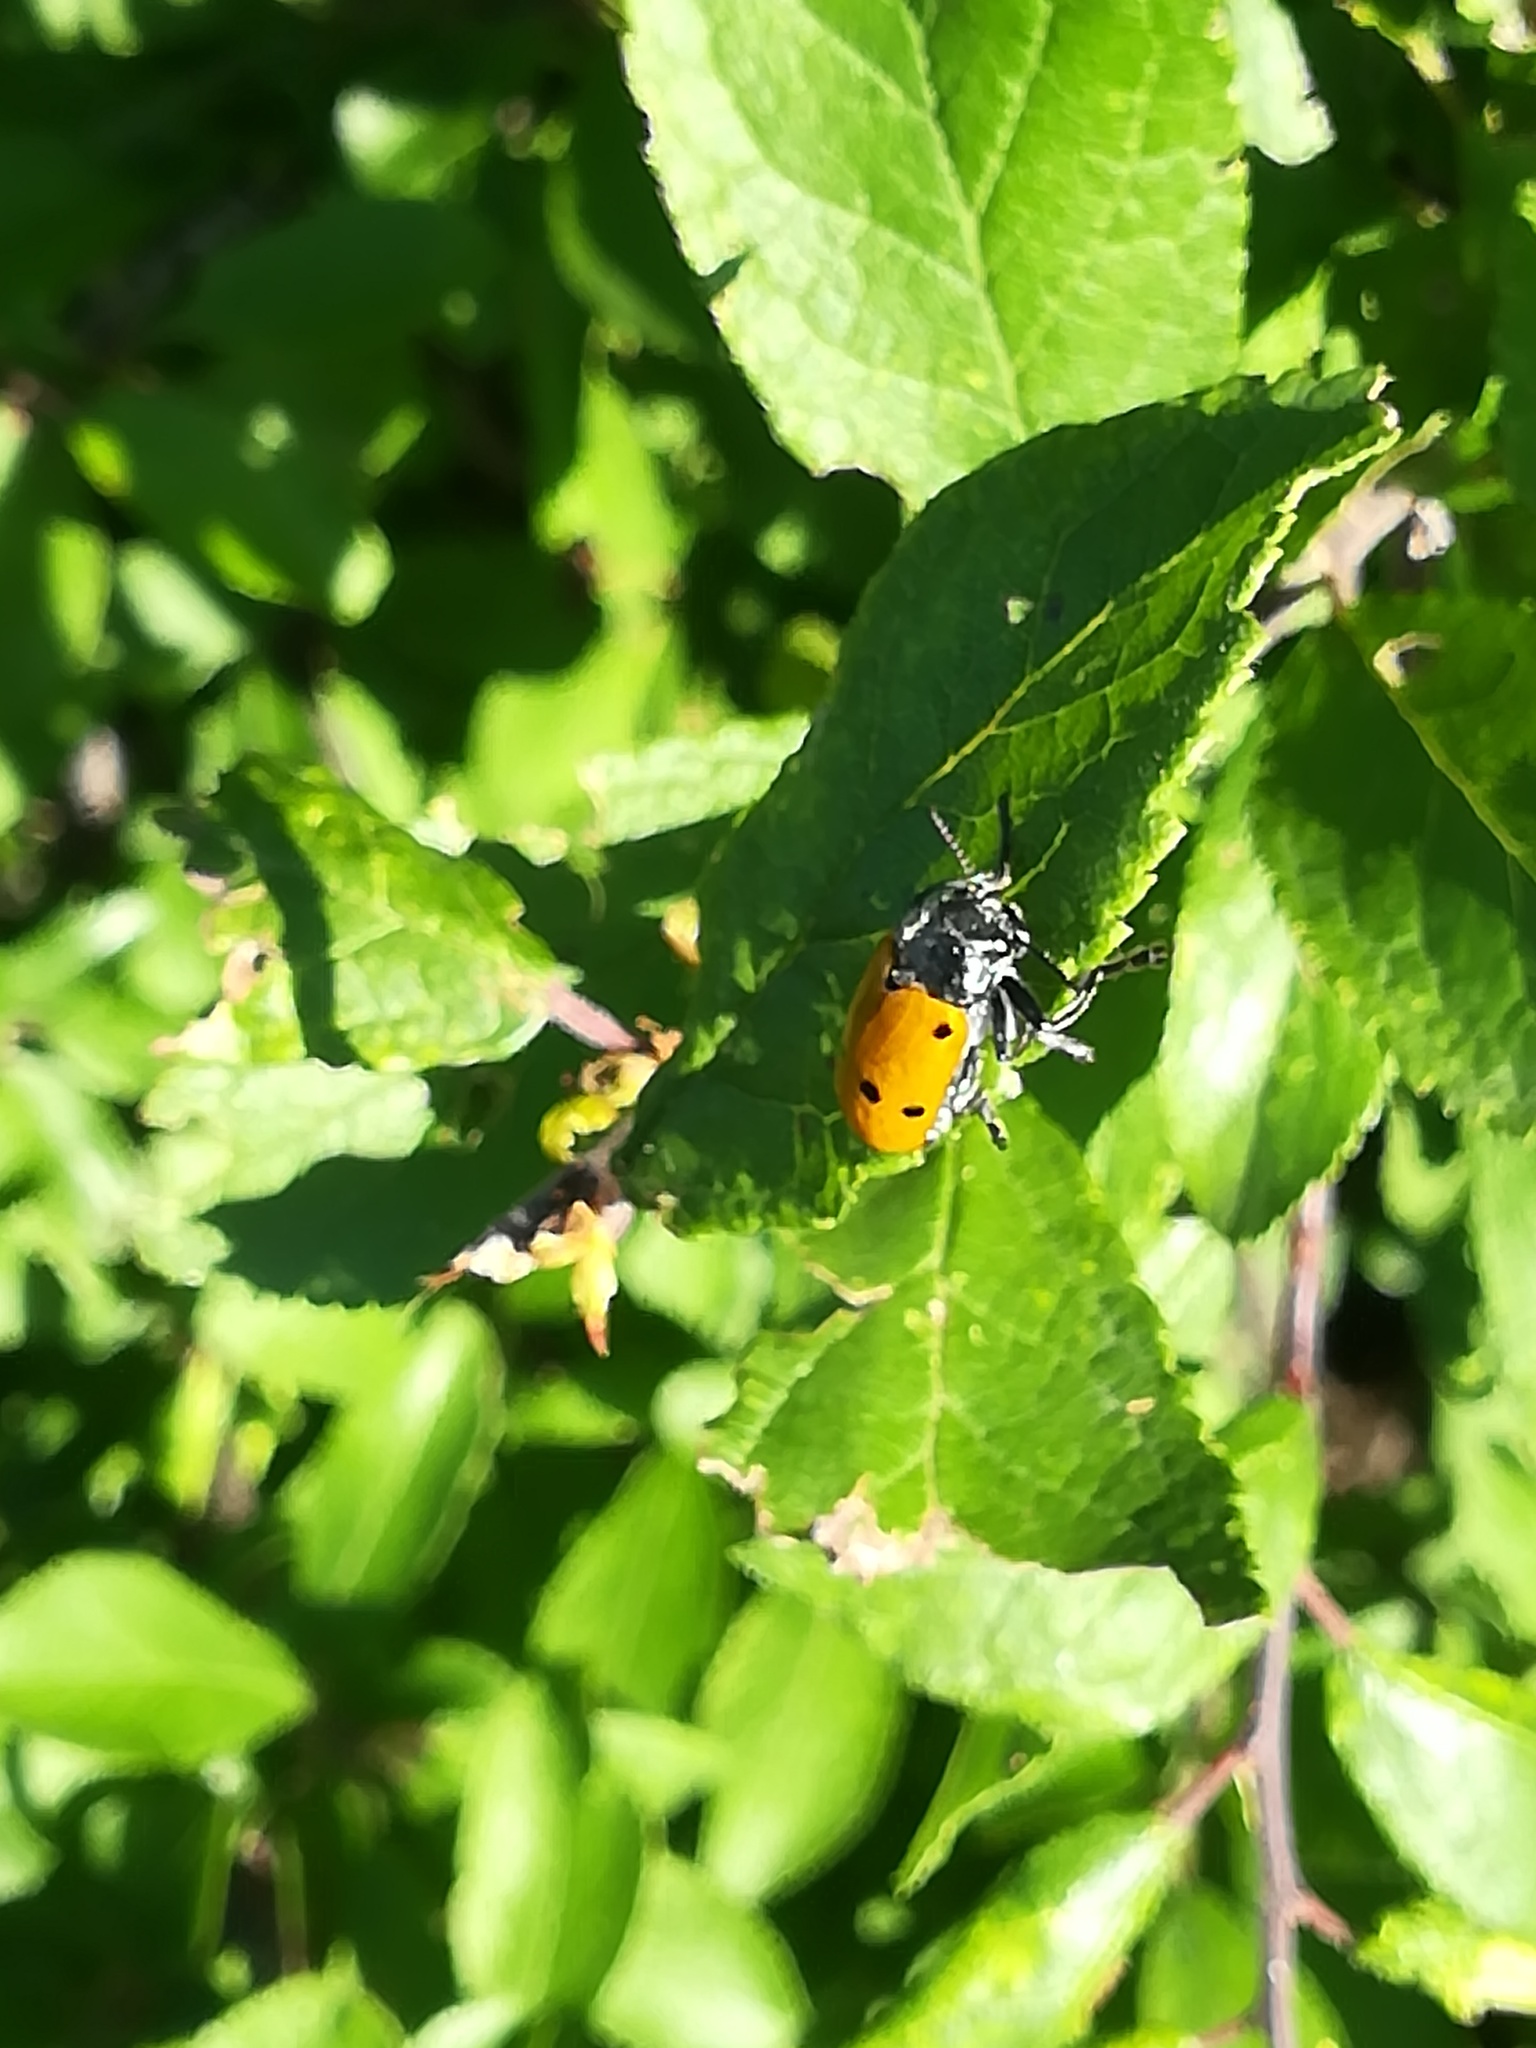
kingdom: Animalia
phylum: Arthropoda
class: Insecta
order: Coleoptera
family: Chrysomelidae
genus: Lachnaia
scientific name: Lachnaia italica
